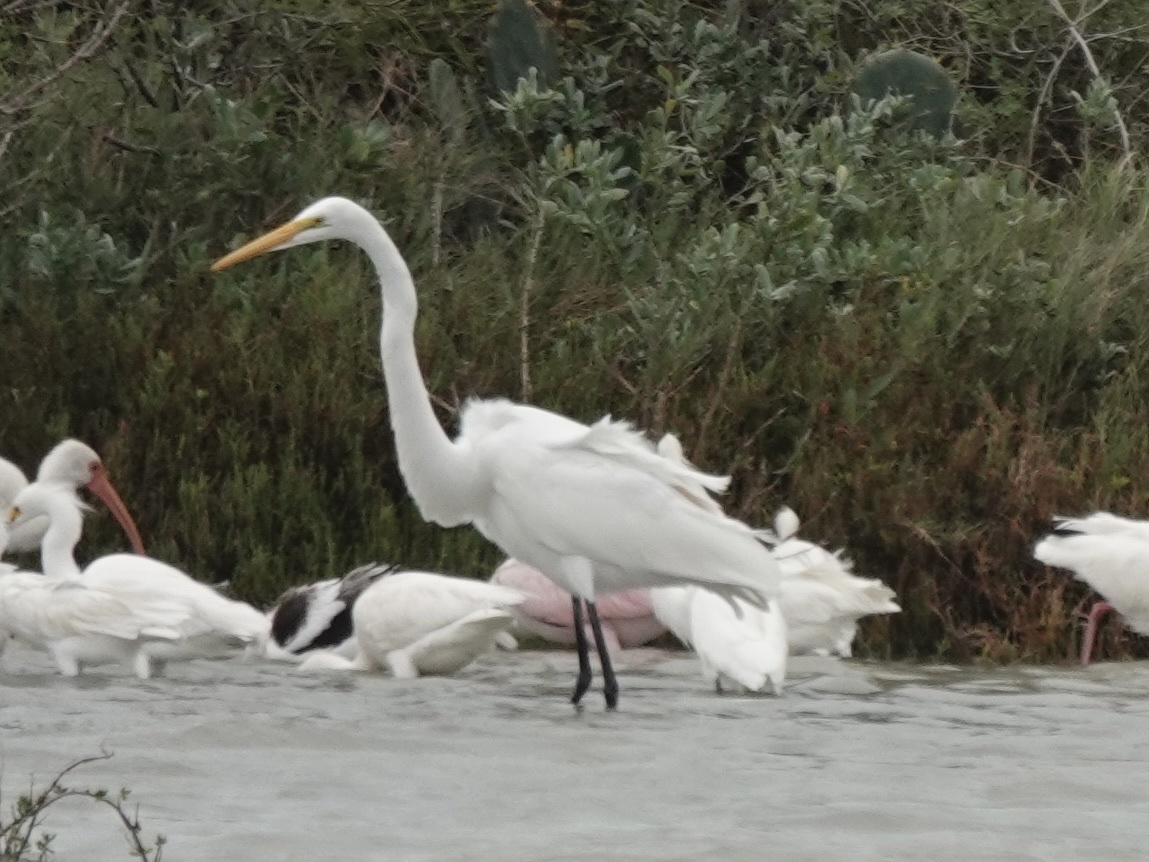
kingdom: Animalia
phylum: Chordata
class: Aves
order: Pelecaniformes
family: Ardeidae
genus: Ardea
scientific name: Ardea alba
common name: Great egret
